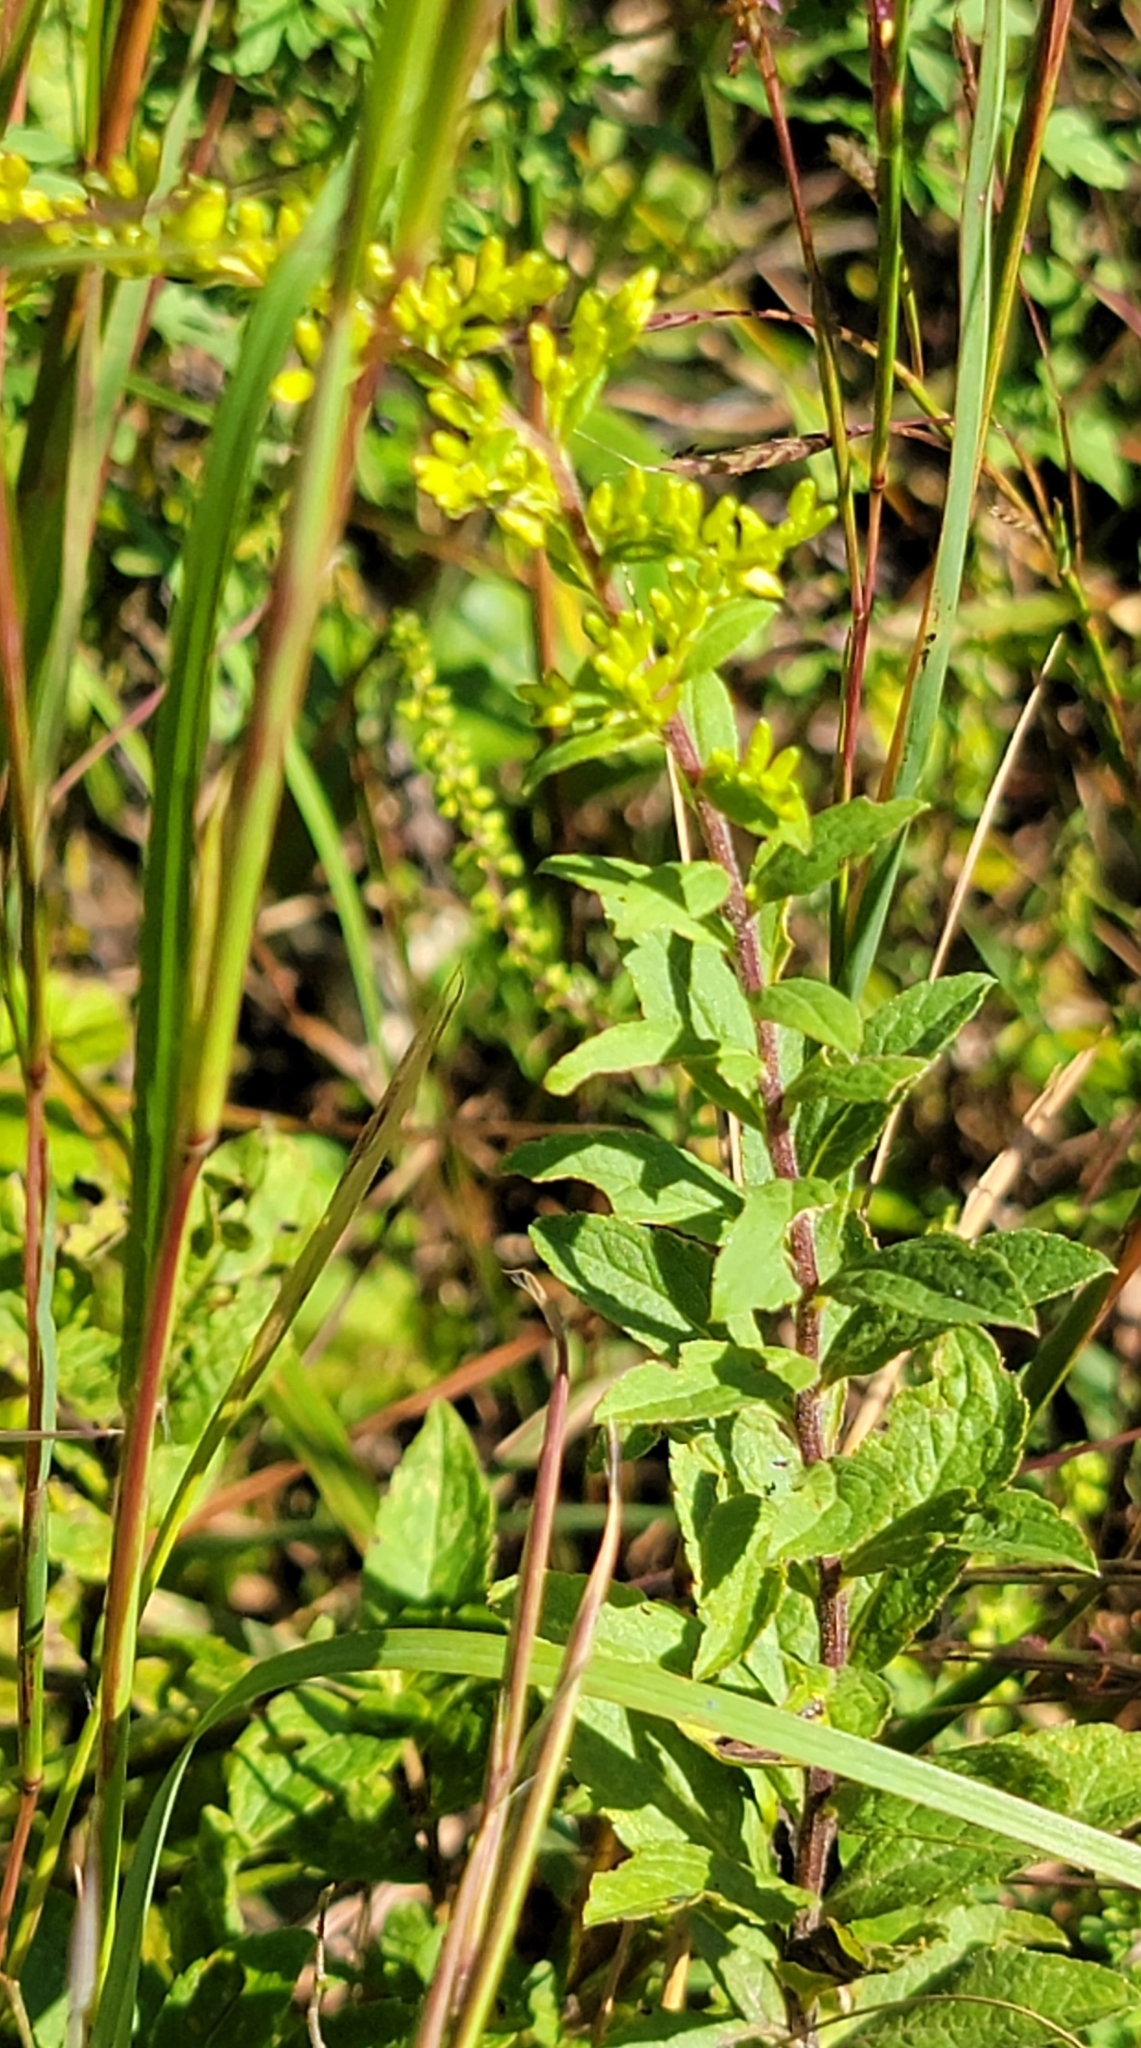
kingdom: Plantae
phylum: Tracheophyta
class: Magnoliopsida
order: Asterales
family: Asteraceae
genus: Solidago
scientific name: Solidago rugosa
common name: Rough-stemmed goldenrod
